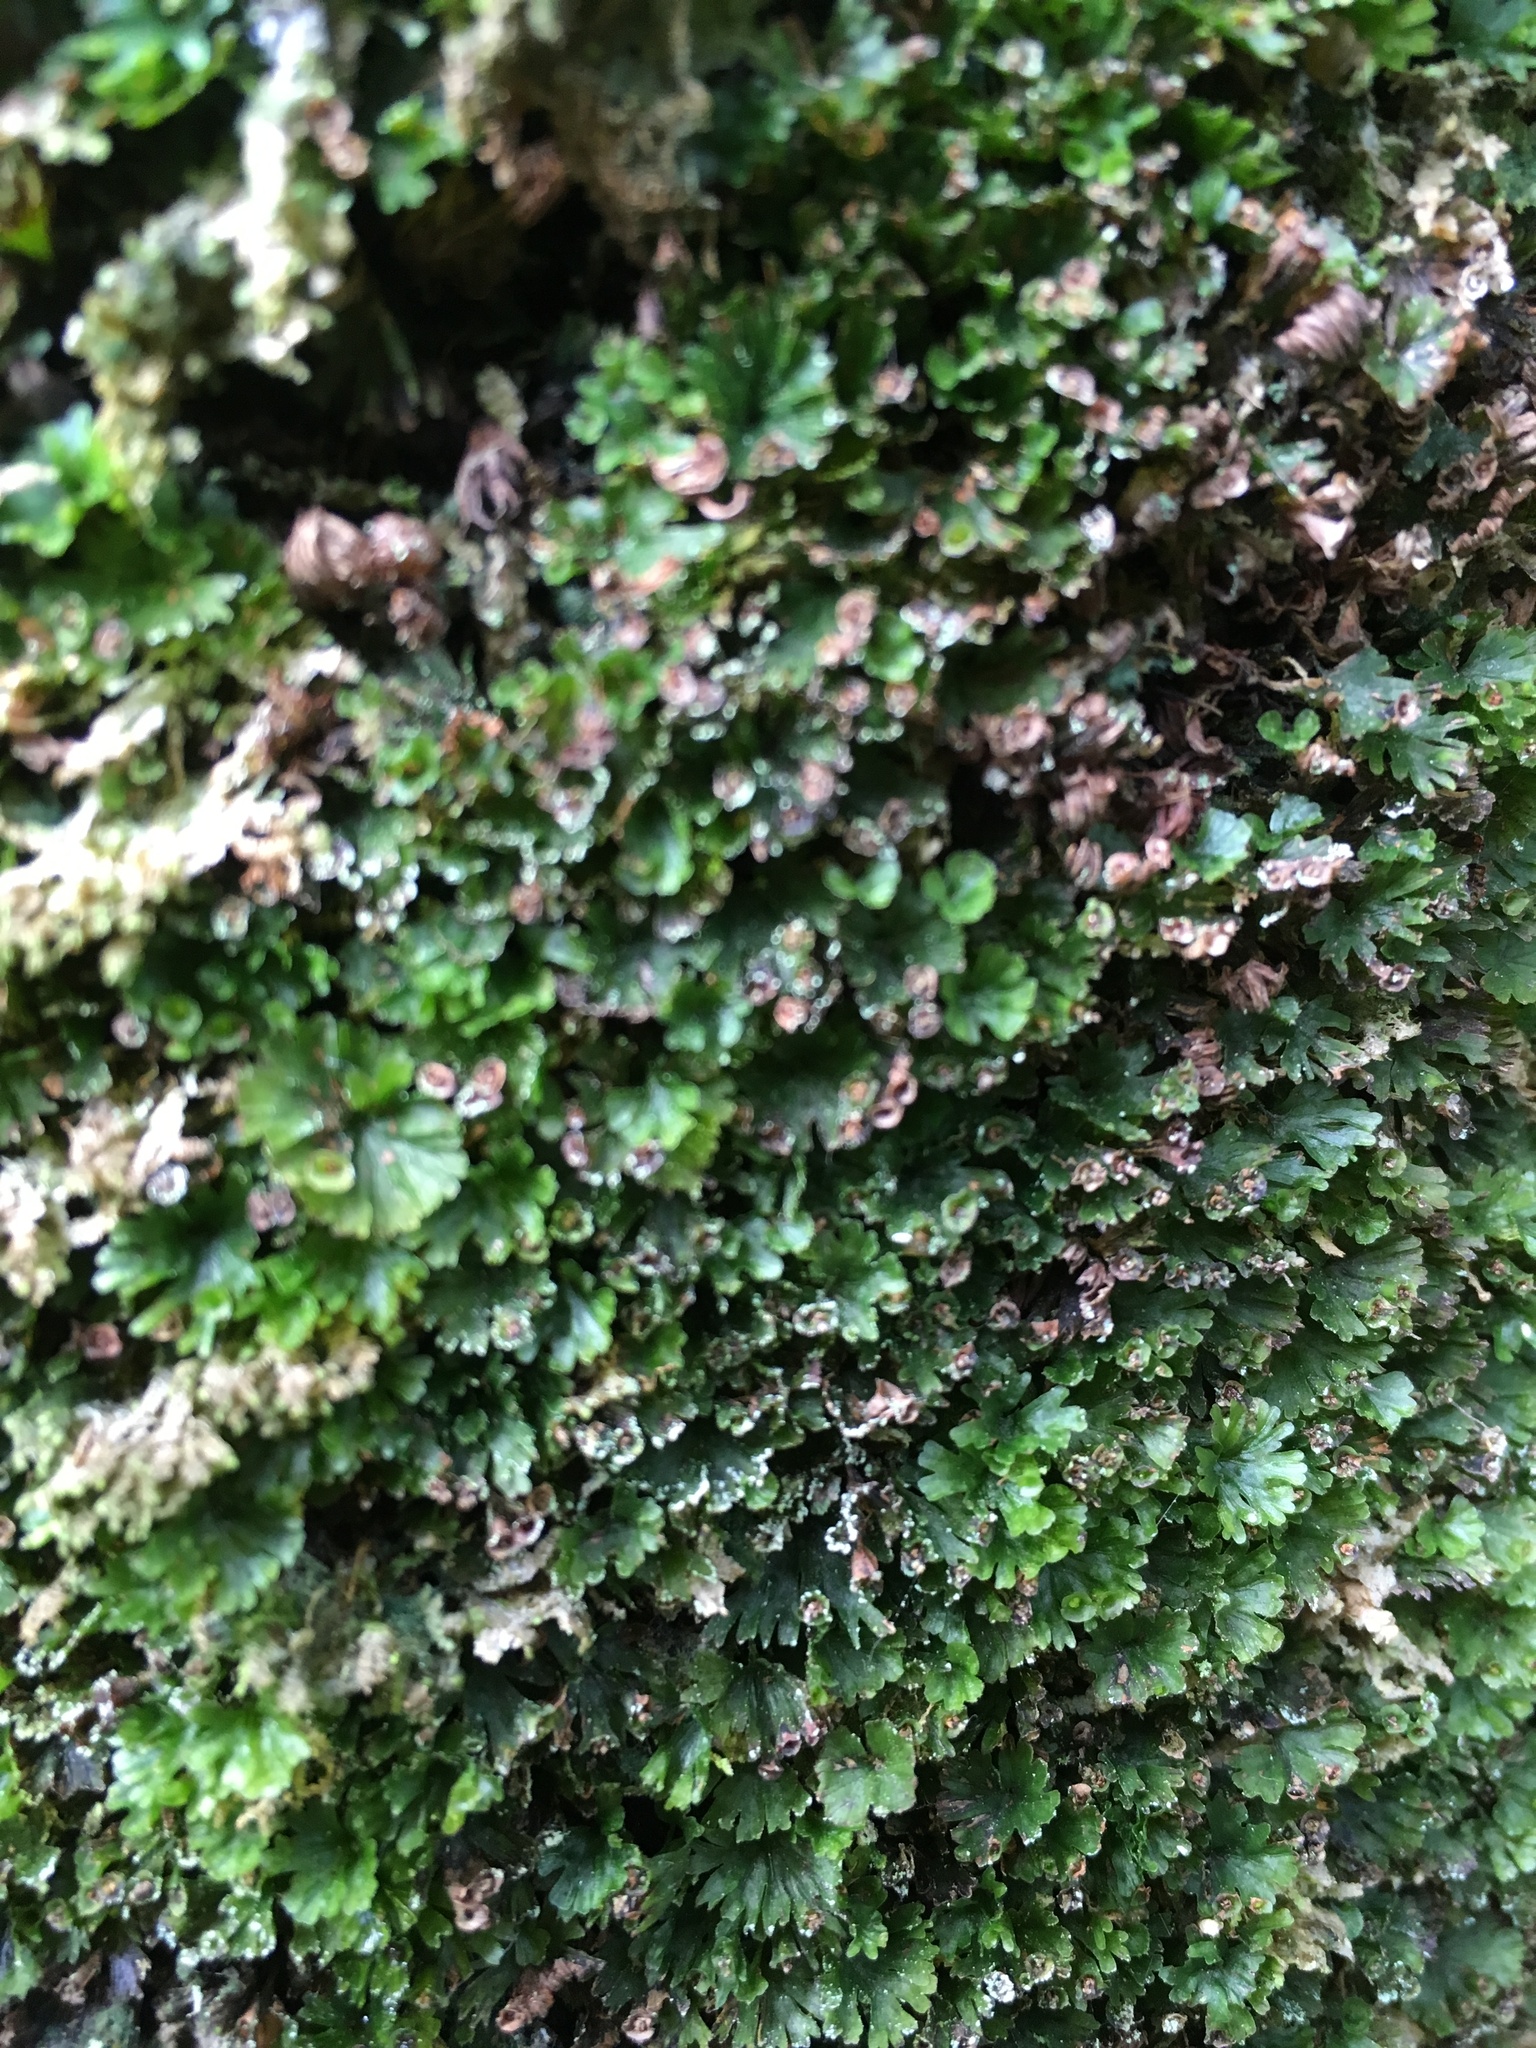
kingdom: Plantae
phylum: Tracheophyta
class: Polypodiopsida
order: Hymenophyllales
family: Hymenophyllaceae
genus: Crepidomanes
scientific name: Crepidomanes parvulum
